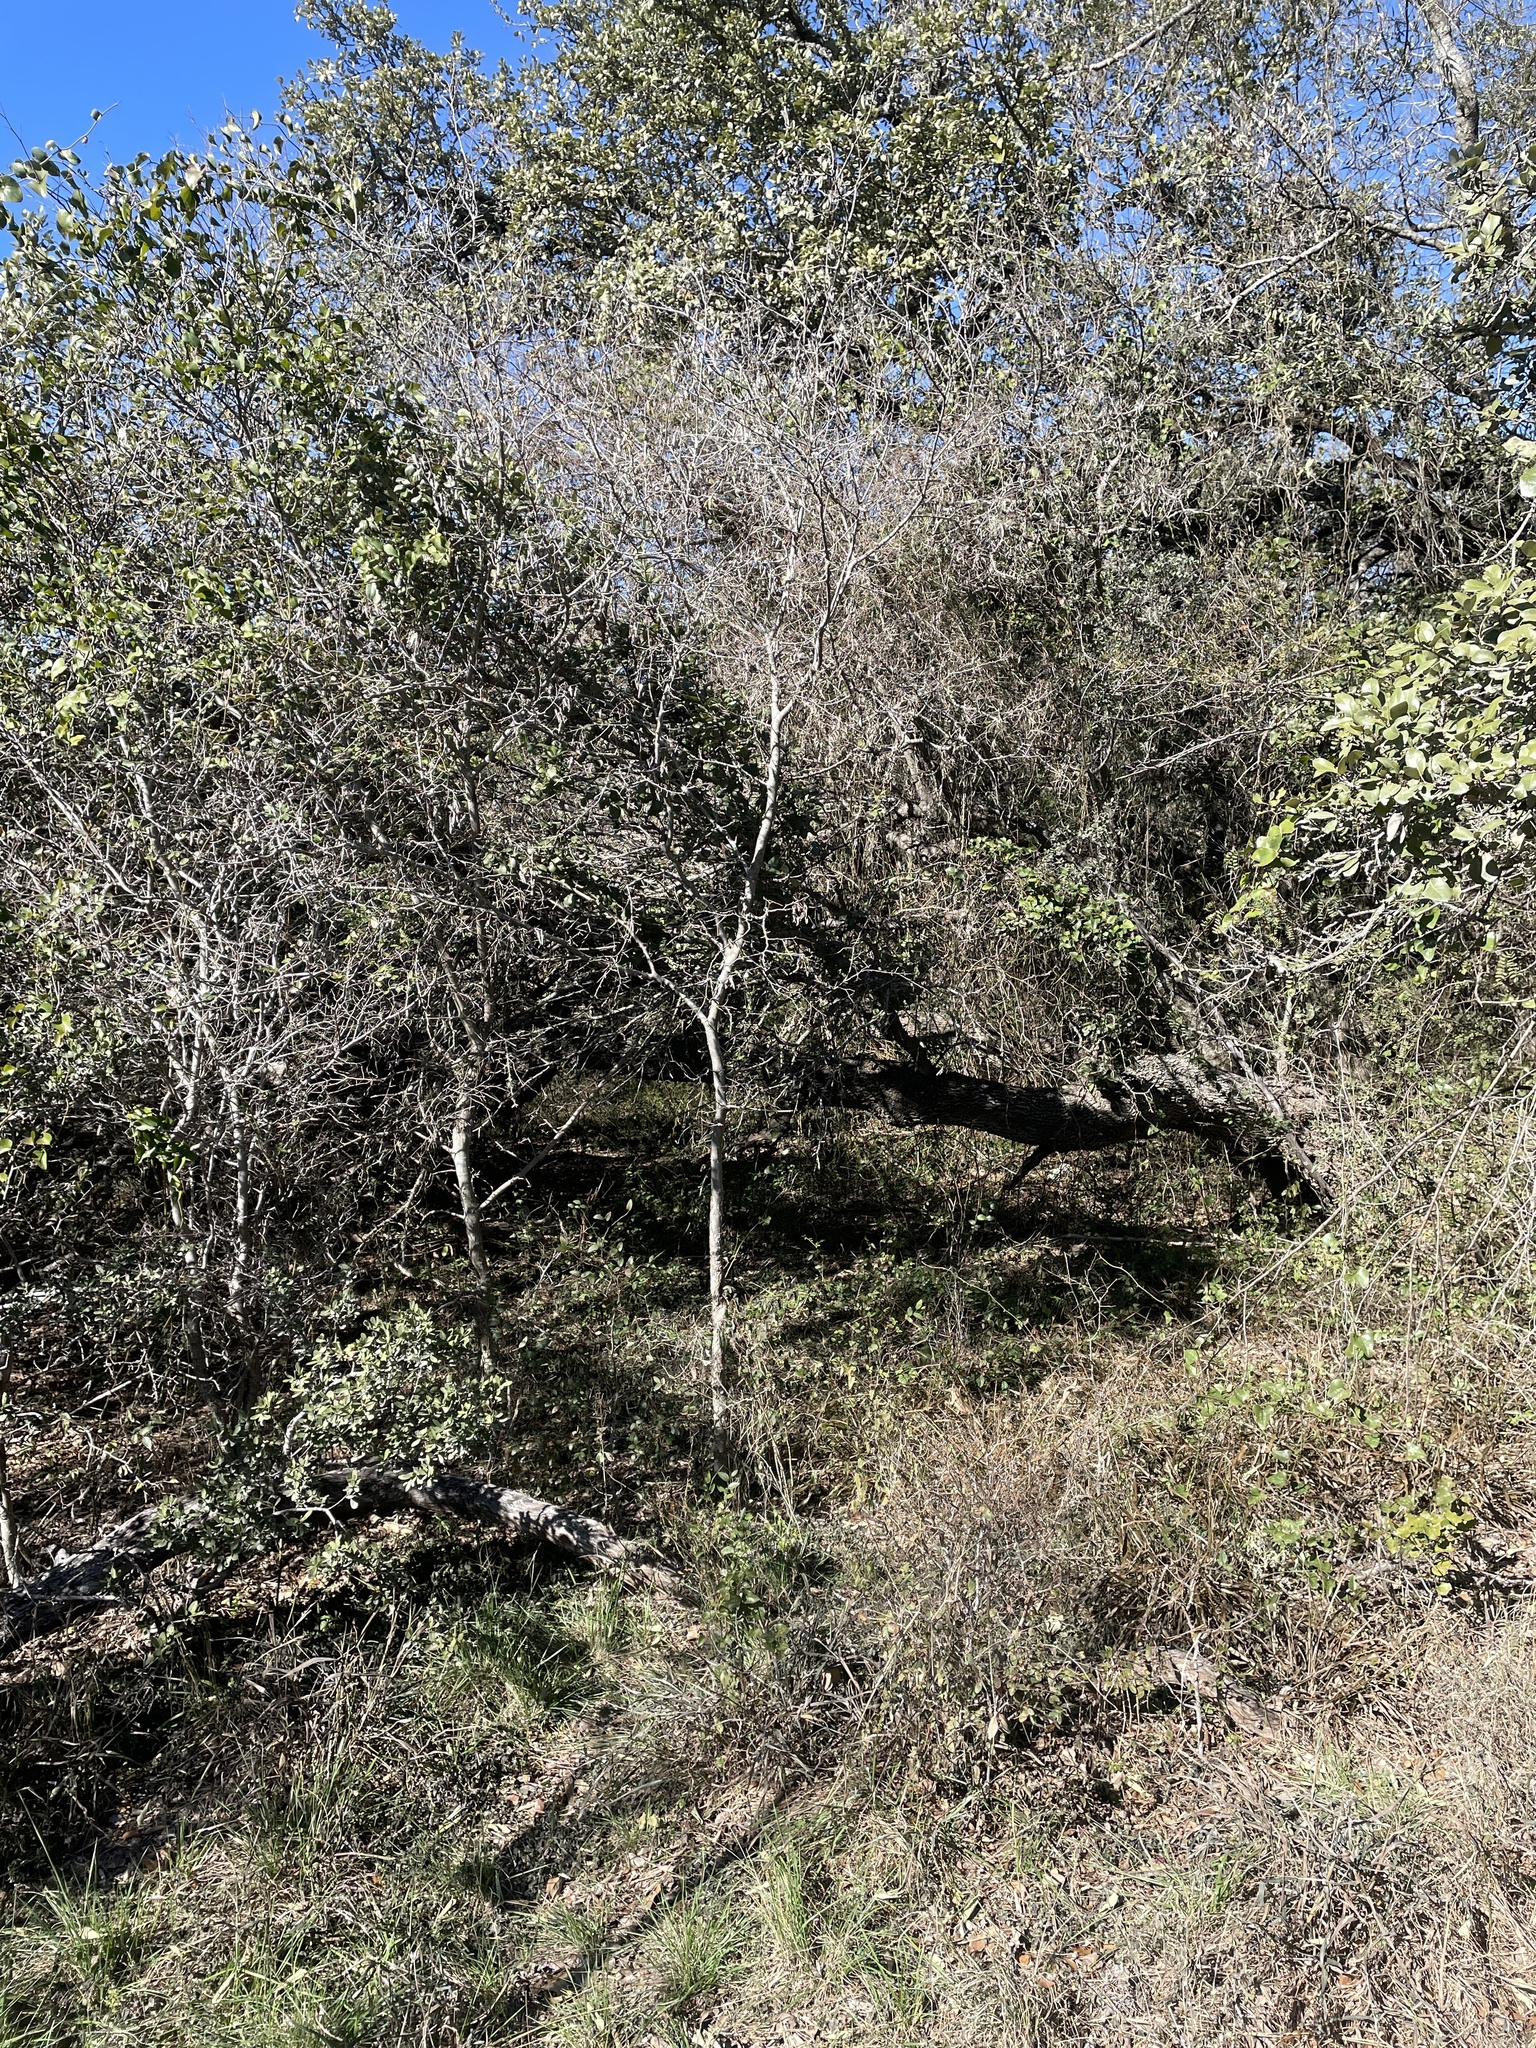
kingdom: Animalia
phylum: Chordata
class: Aves
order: Passeriformes
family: Passerellidae
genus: Pipilo
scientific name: Pipilo maculatus
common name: Spotted towhee
